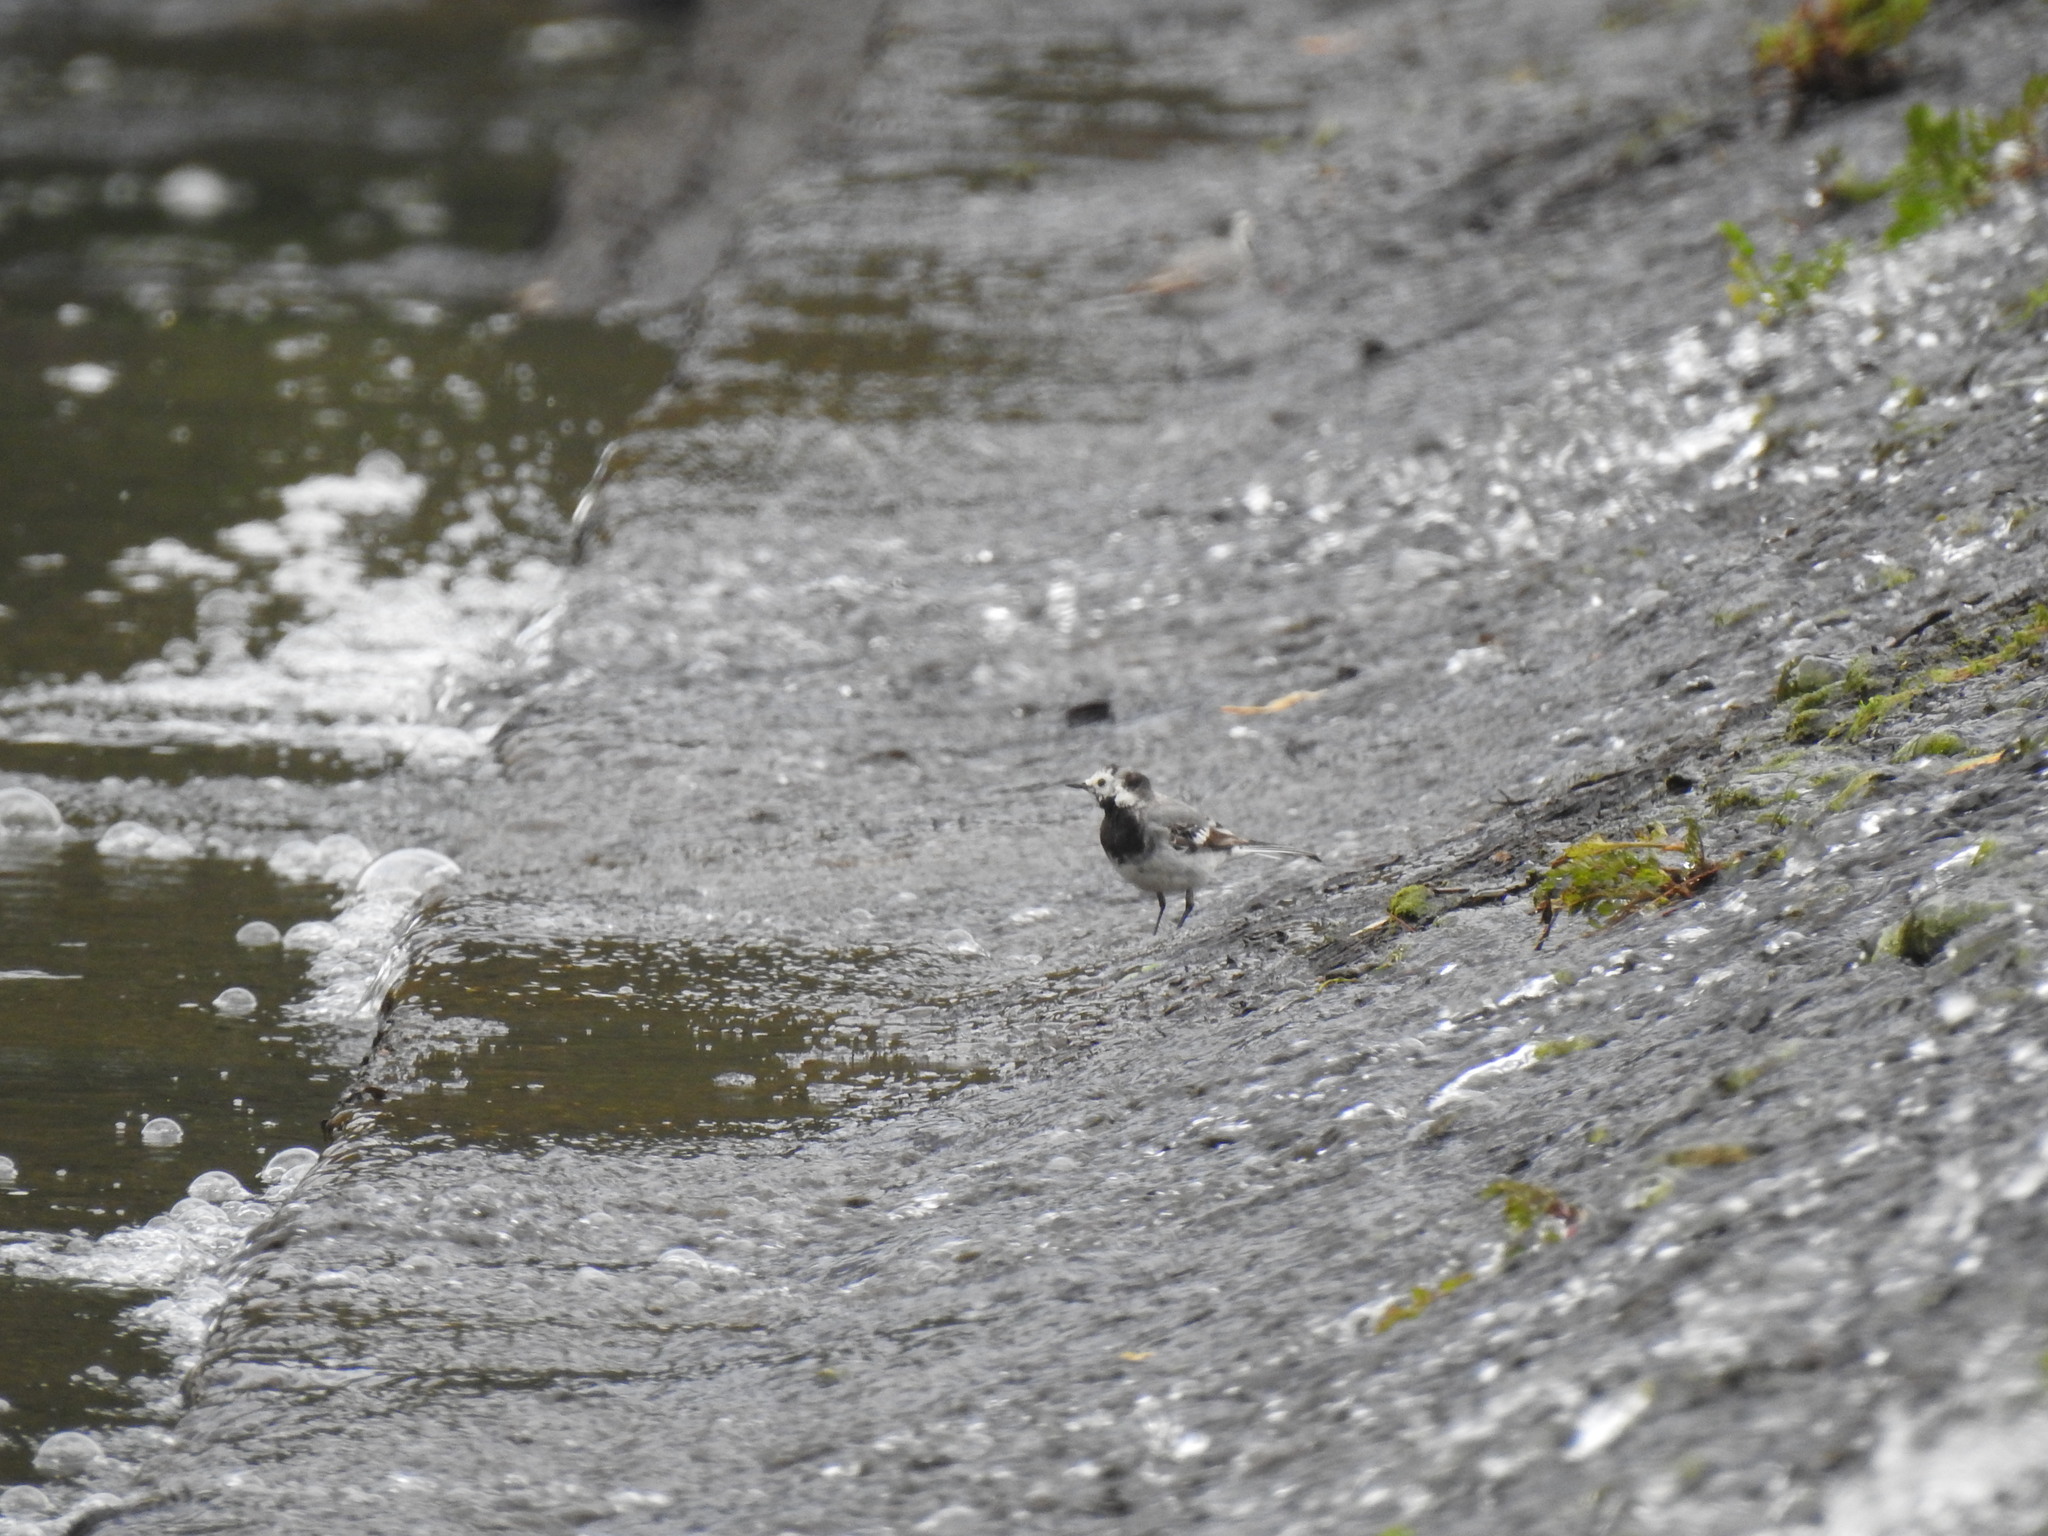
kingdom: Animalia
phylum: Chordata
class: Aves
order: Passeriformes
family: Motacillidae
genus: Motacilla
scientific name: Motacilla alba
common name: White wagtail
